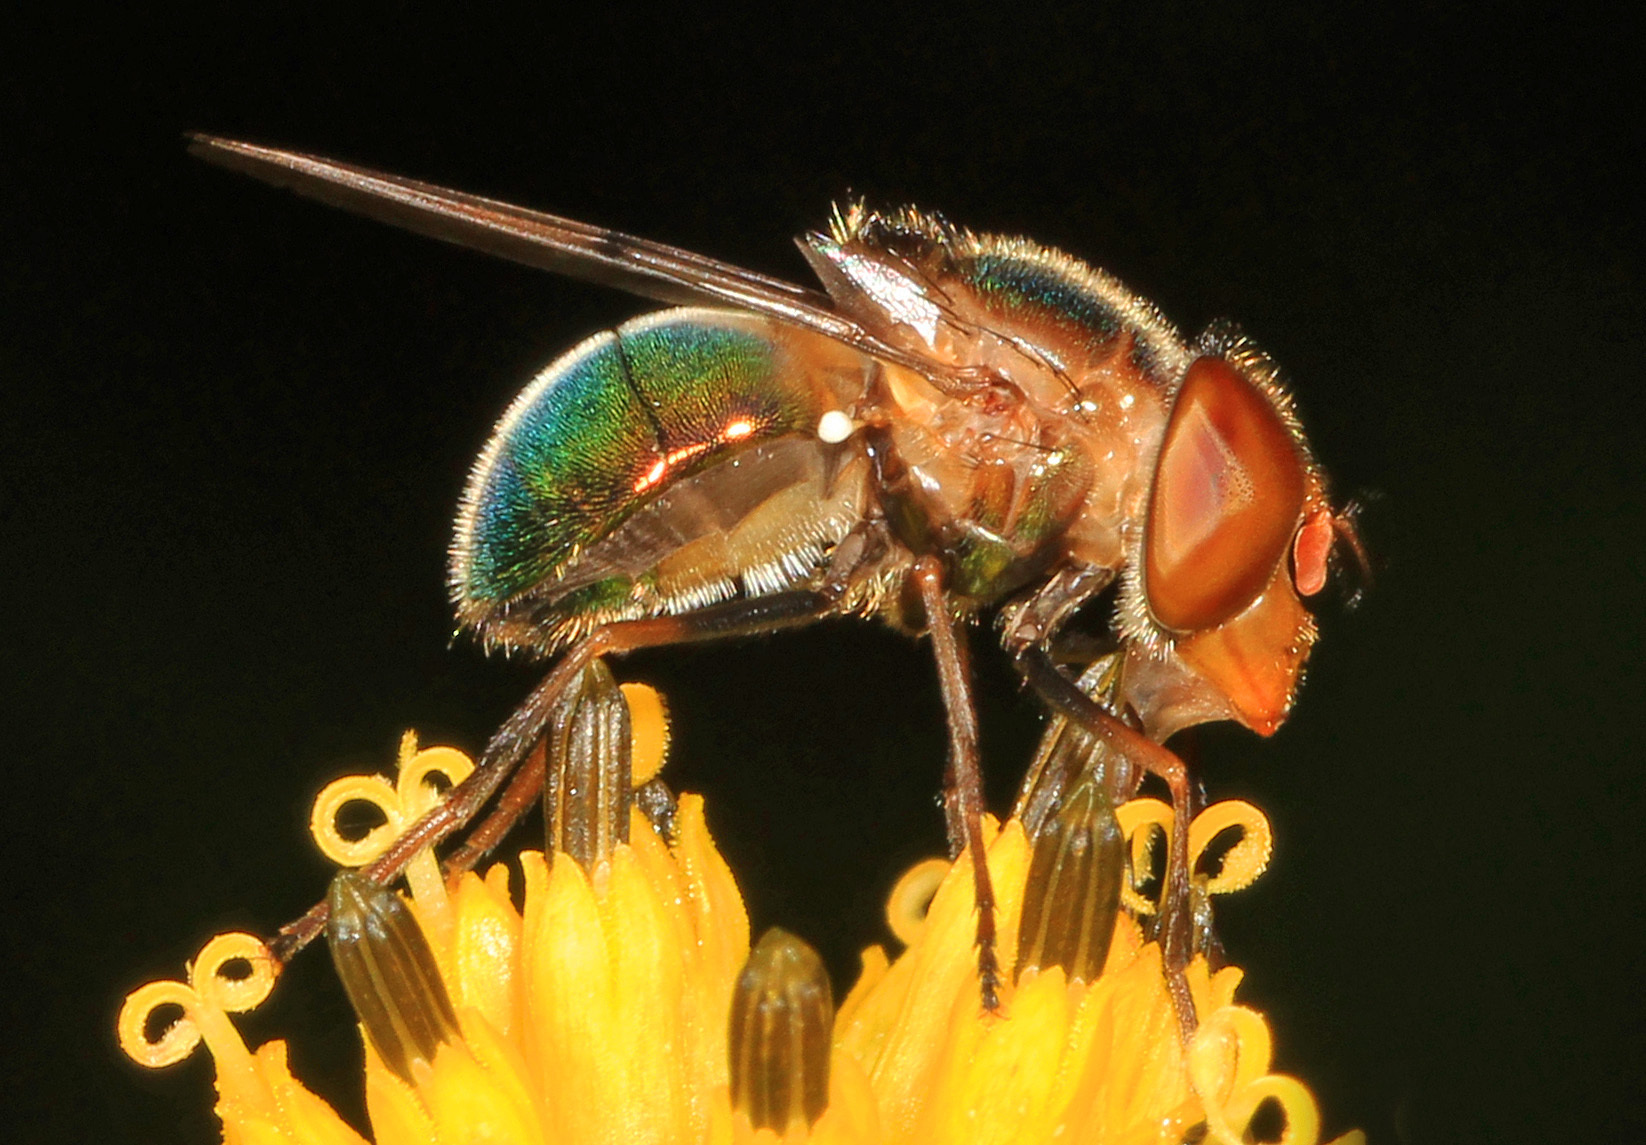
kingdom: Animalia
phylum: Arthropoda
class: Insecta
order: Diptera
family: Syrphidae
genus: Copestylum
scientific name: Copestylum vesicularium
